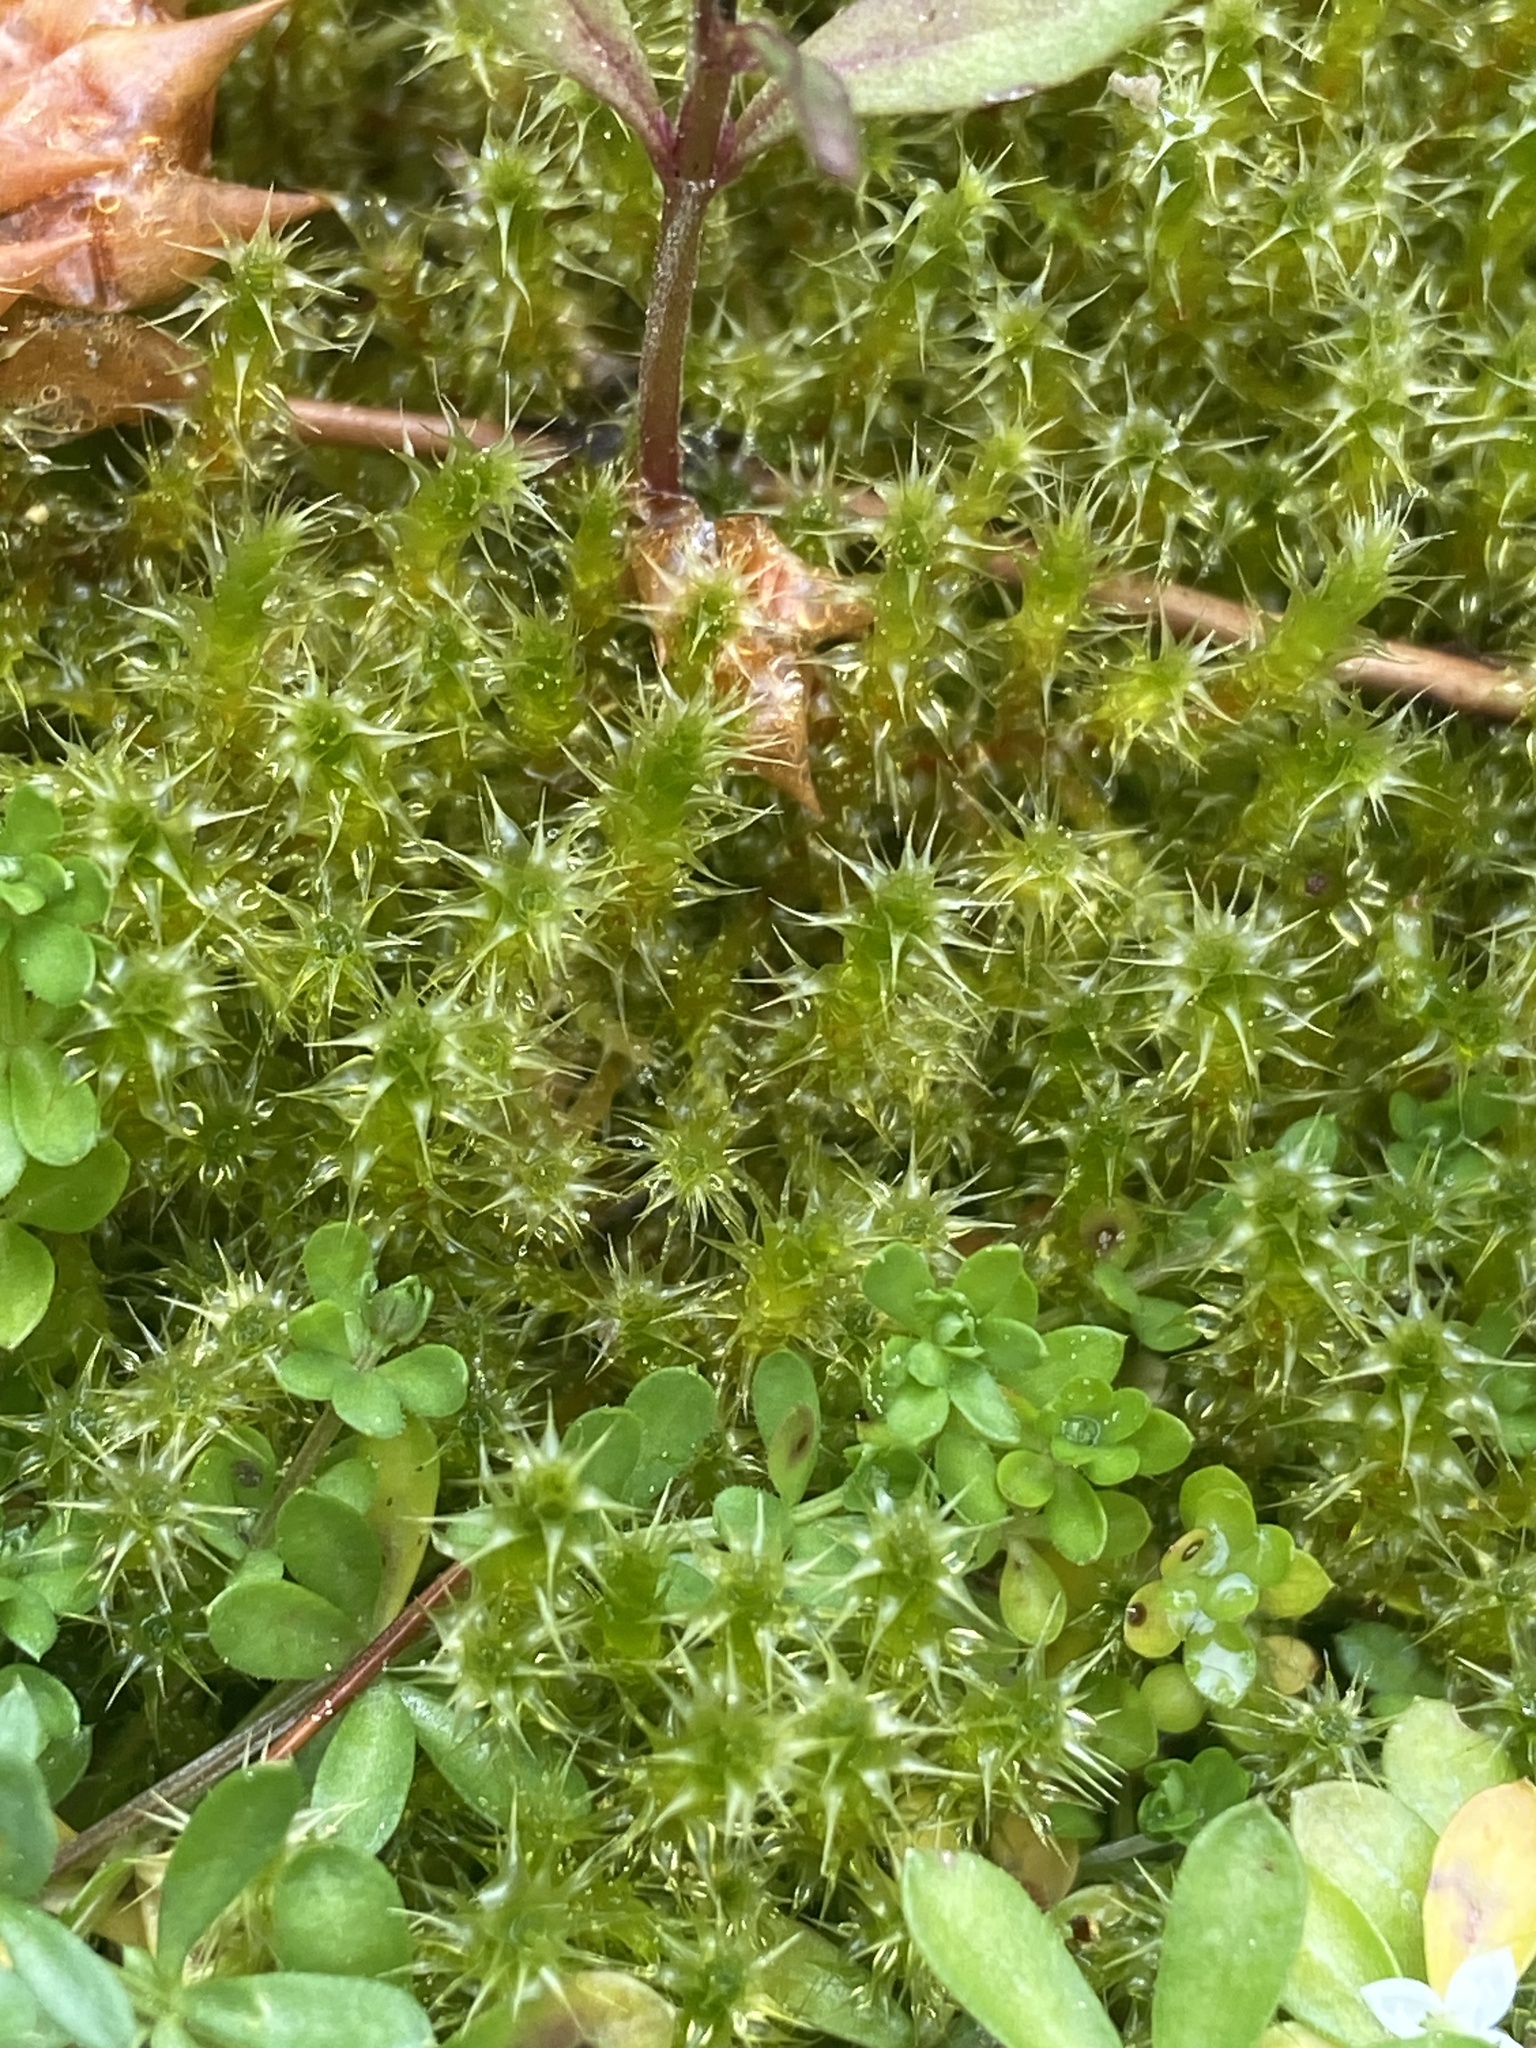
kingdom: Plantae
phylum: Bryophyta
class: Bryopsida
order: Hypnales
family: Hylocomiaceae
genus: Rhytidiadelphus
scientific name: Rhytidiadelphus squarrosus
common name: Springy turf-moss
